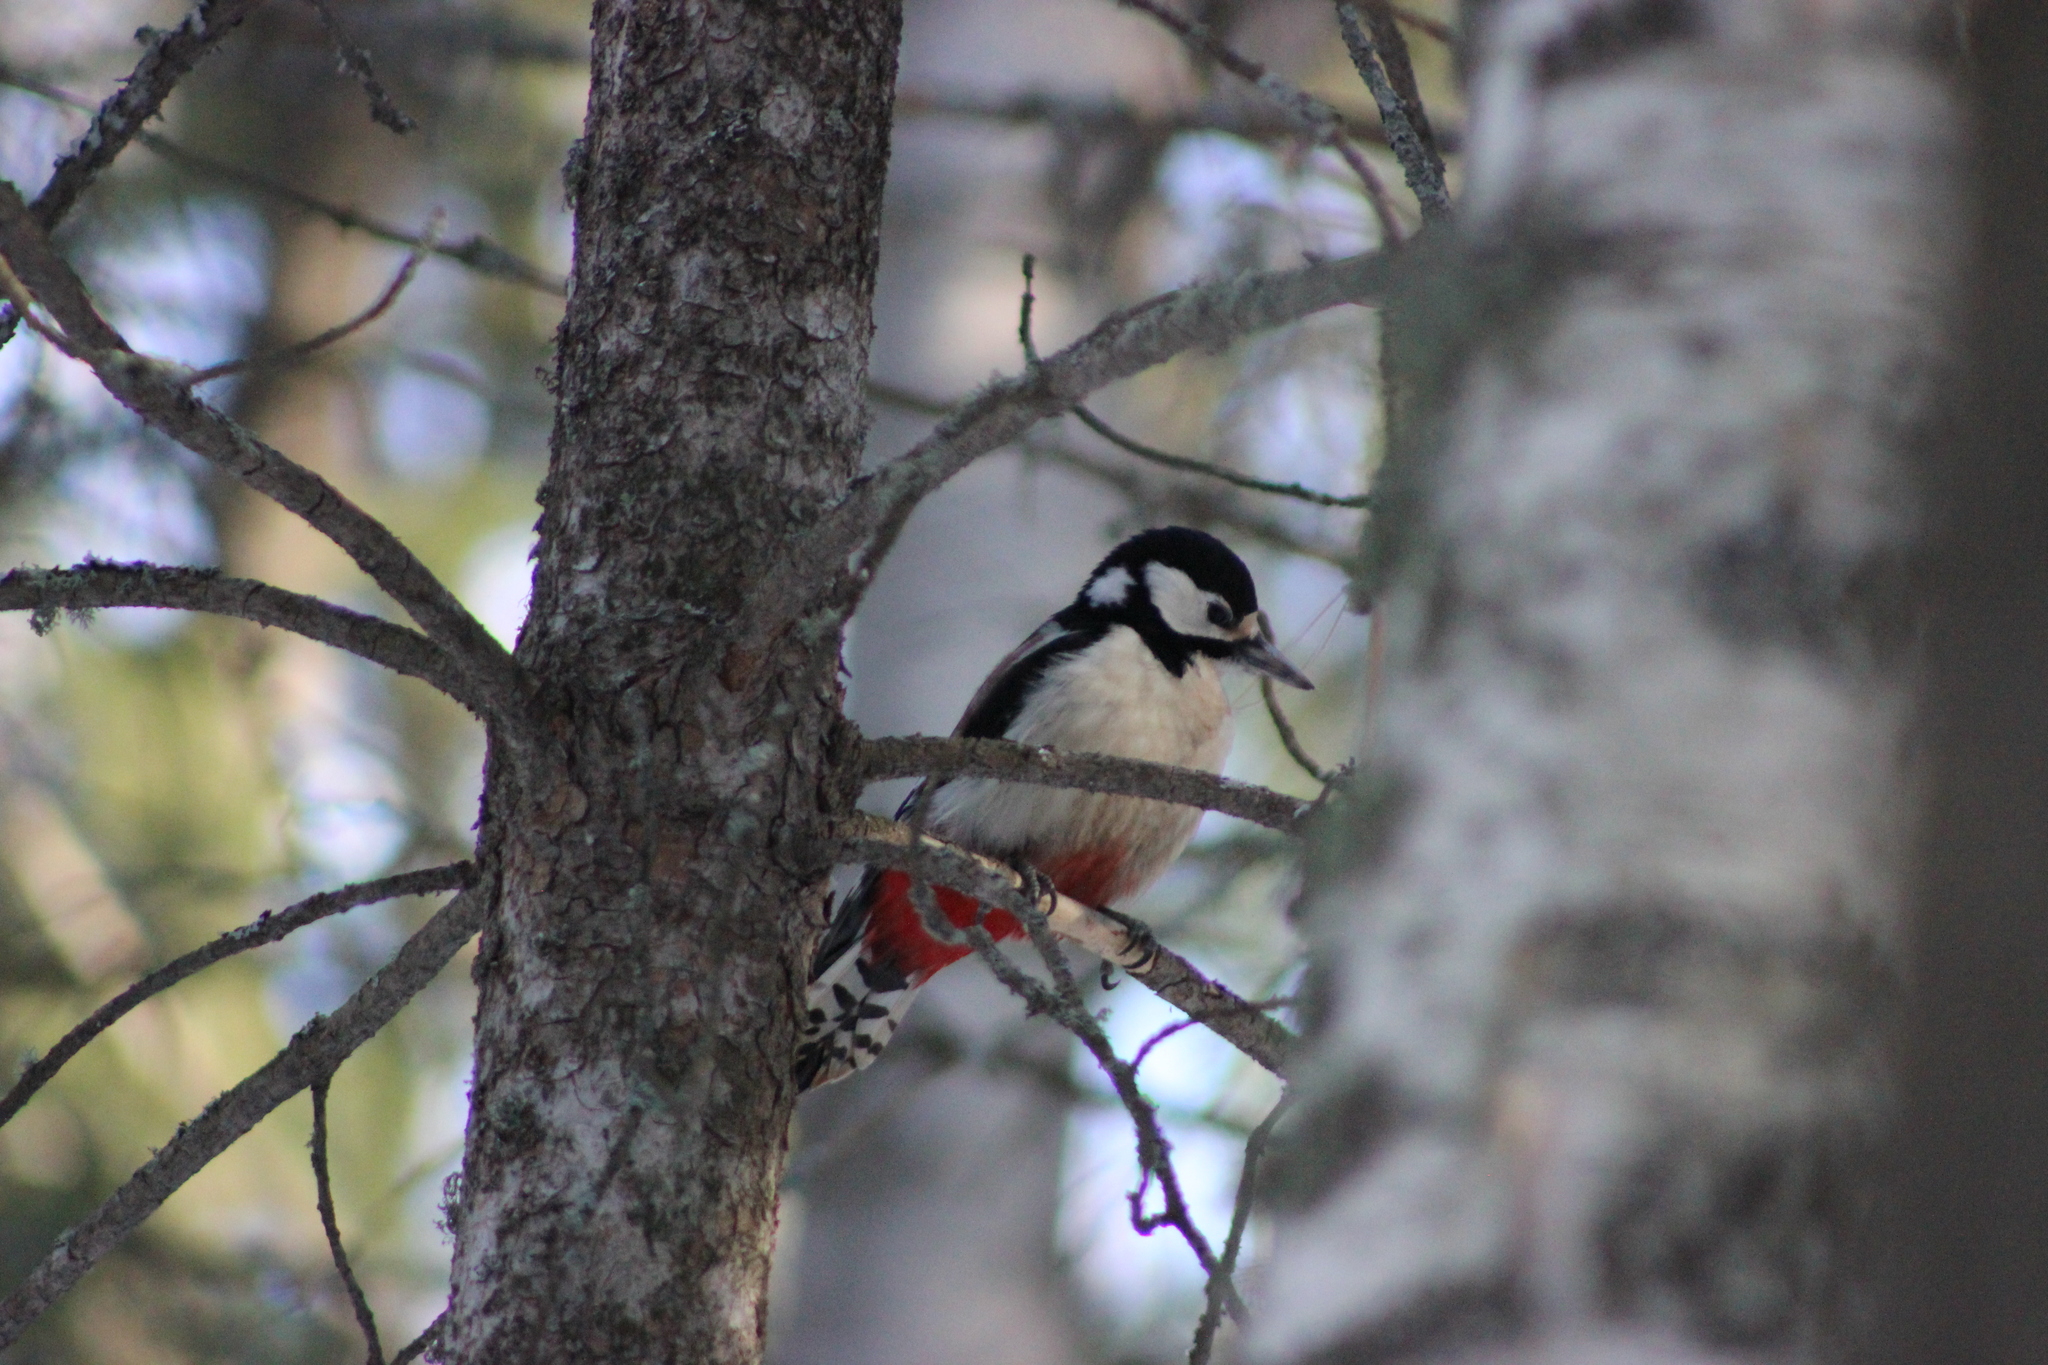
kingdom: Animalia
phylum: Chordata
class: Aves
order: Piciformes
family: Picidae
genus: Dendrocopos
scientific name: Dendrocopos major
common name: Great spotted woodpecker
